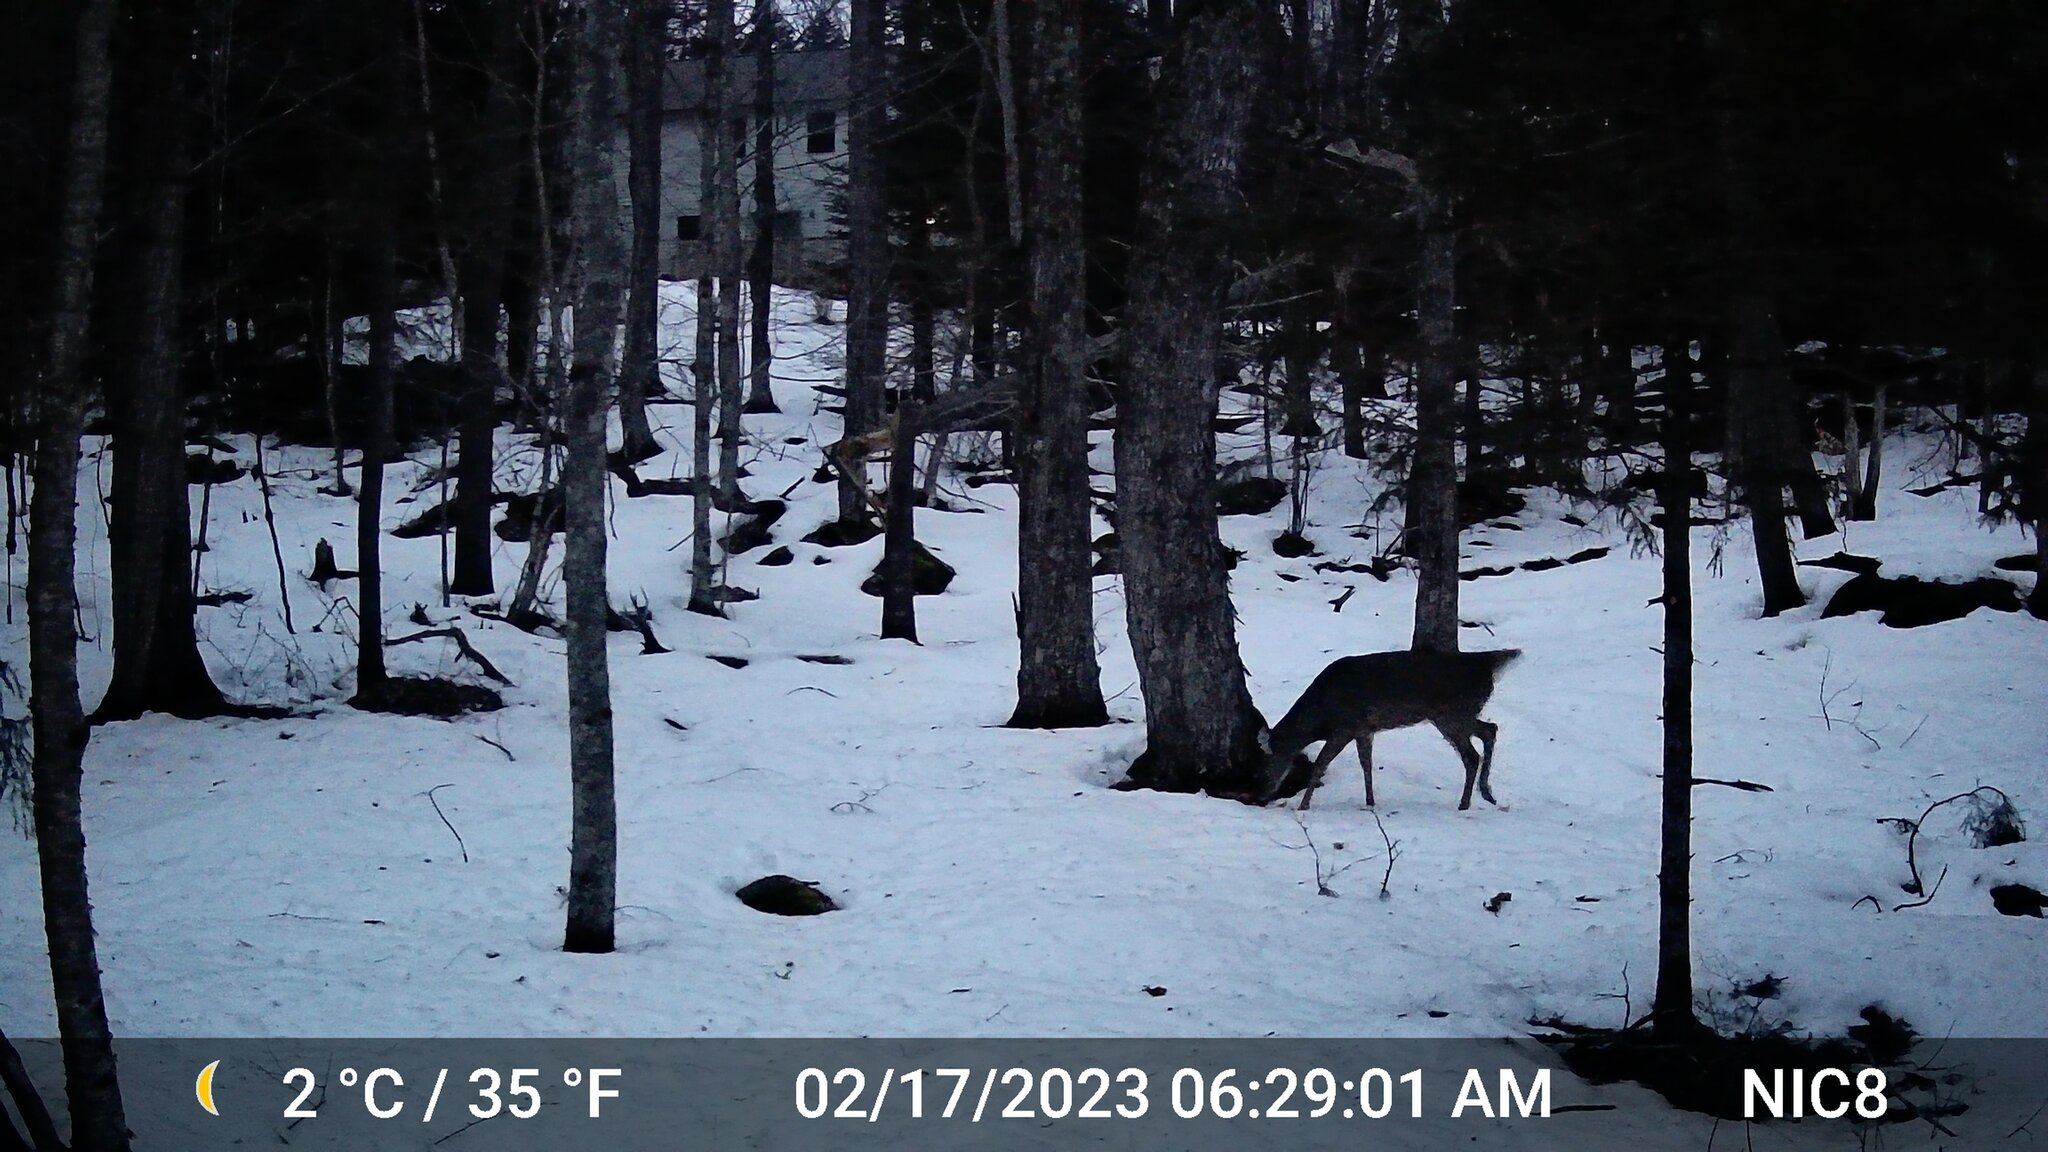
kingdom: Animalia
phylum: Chordata
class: Mammalia
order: Artiodactyla
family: Cervidae
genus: Odocoileus
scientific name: Odocoileus virginianus
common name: White-tailed deer
